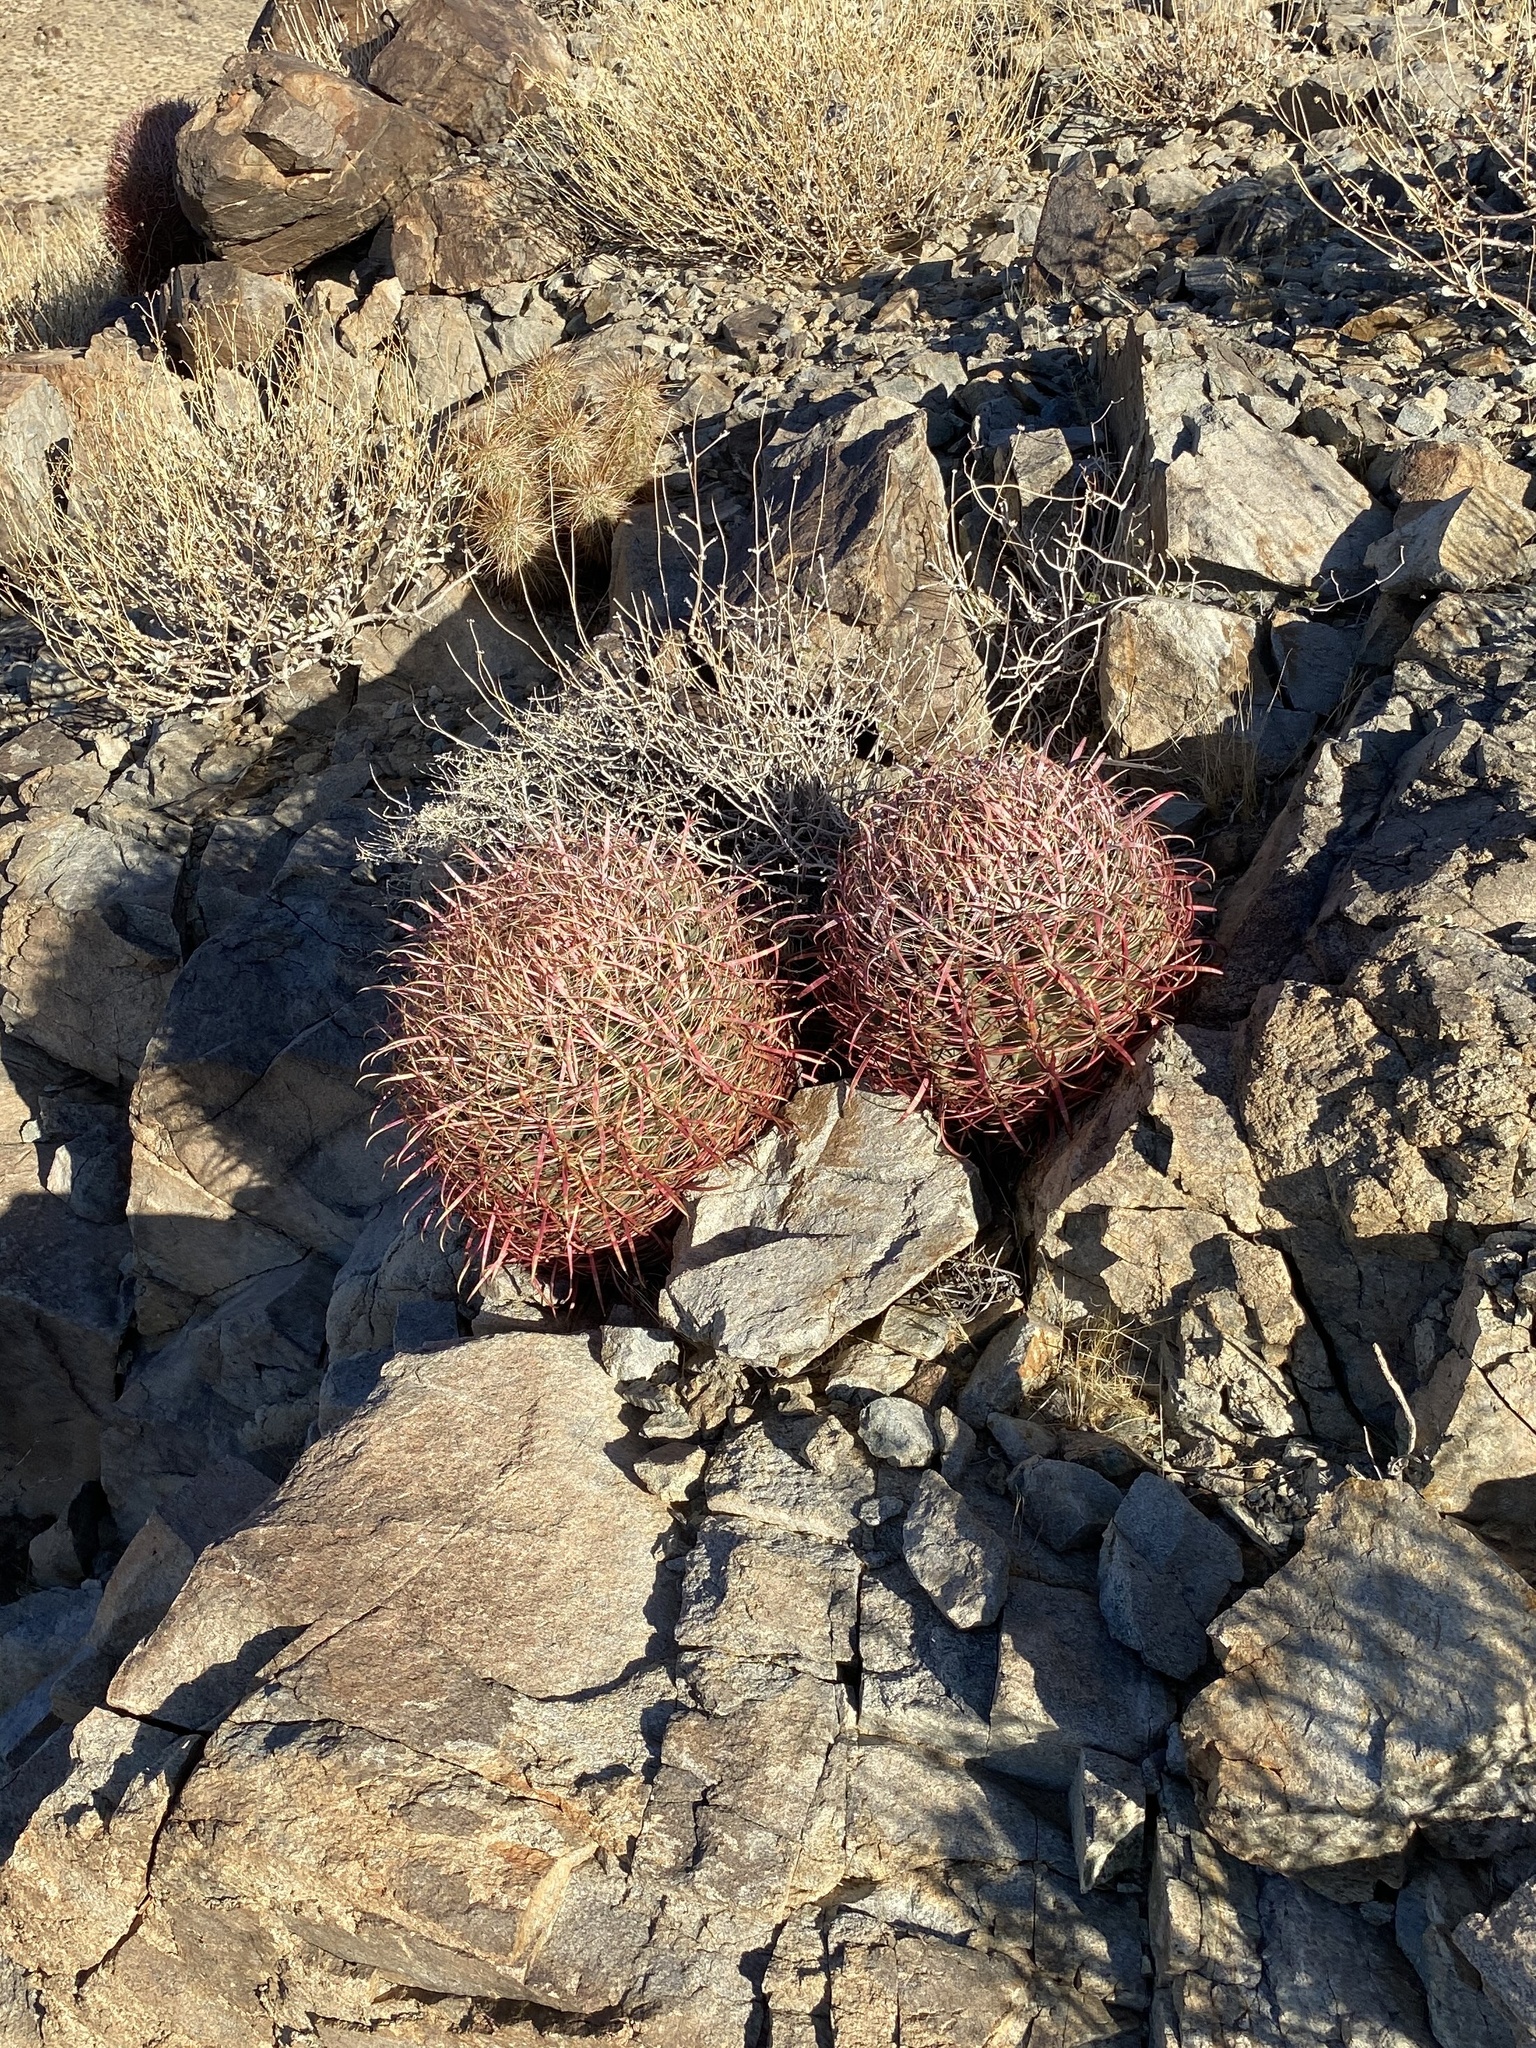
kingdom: Plantae
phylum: Tracheophyta
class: Magnoliopsida
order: Caryophyllales
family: Cactaceae
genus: Ferocactus
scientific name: Ferocactus cylindraceus
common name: California barrel cactus
